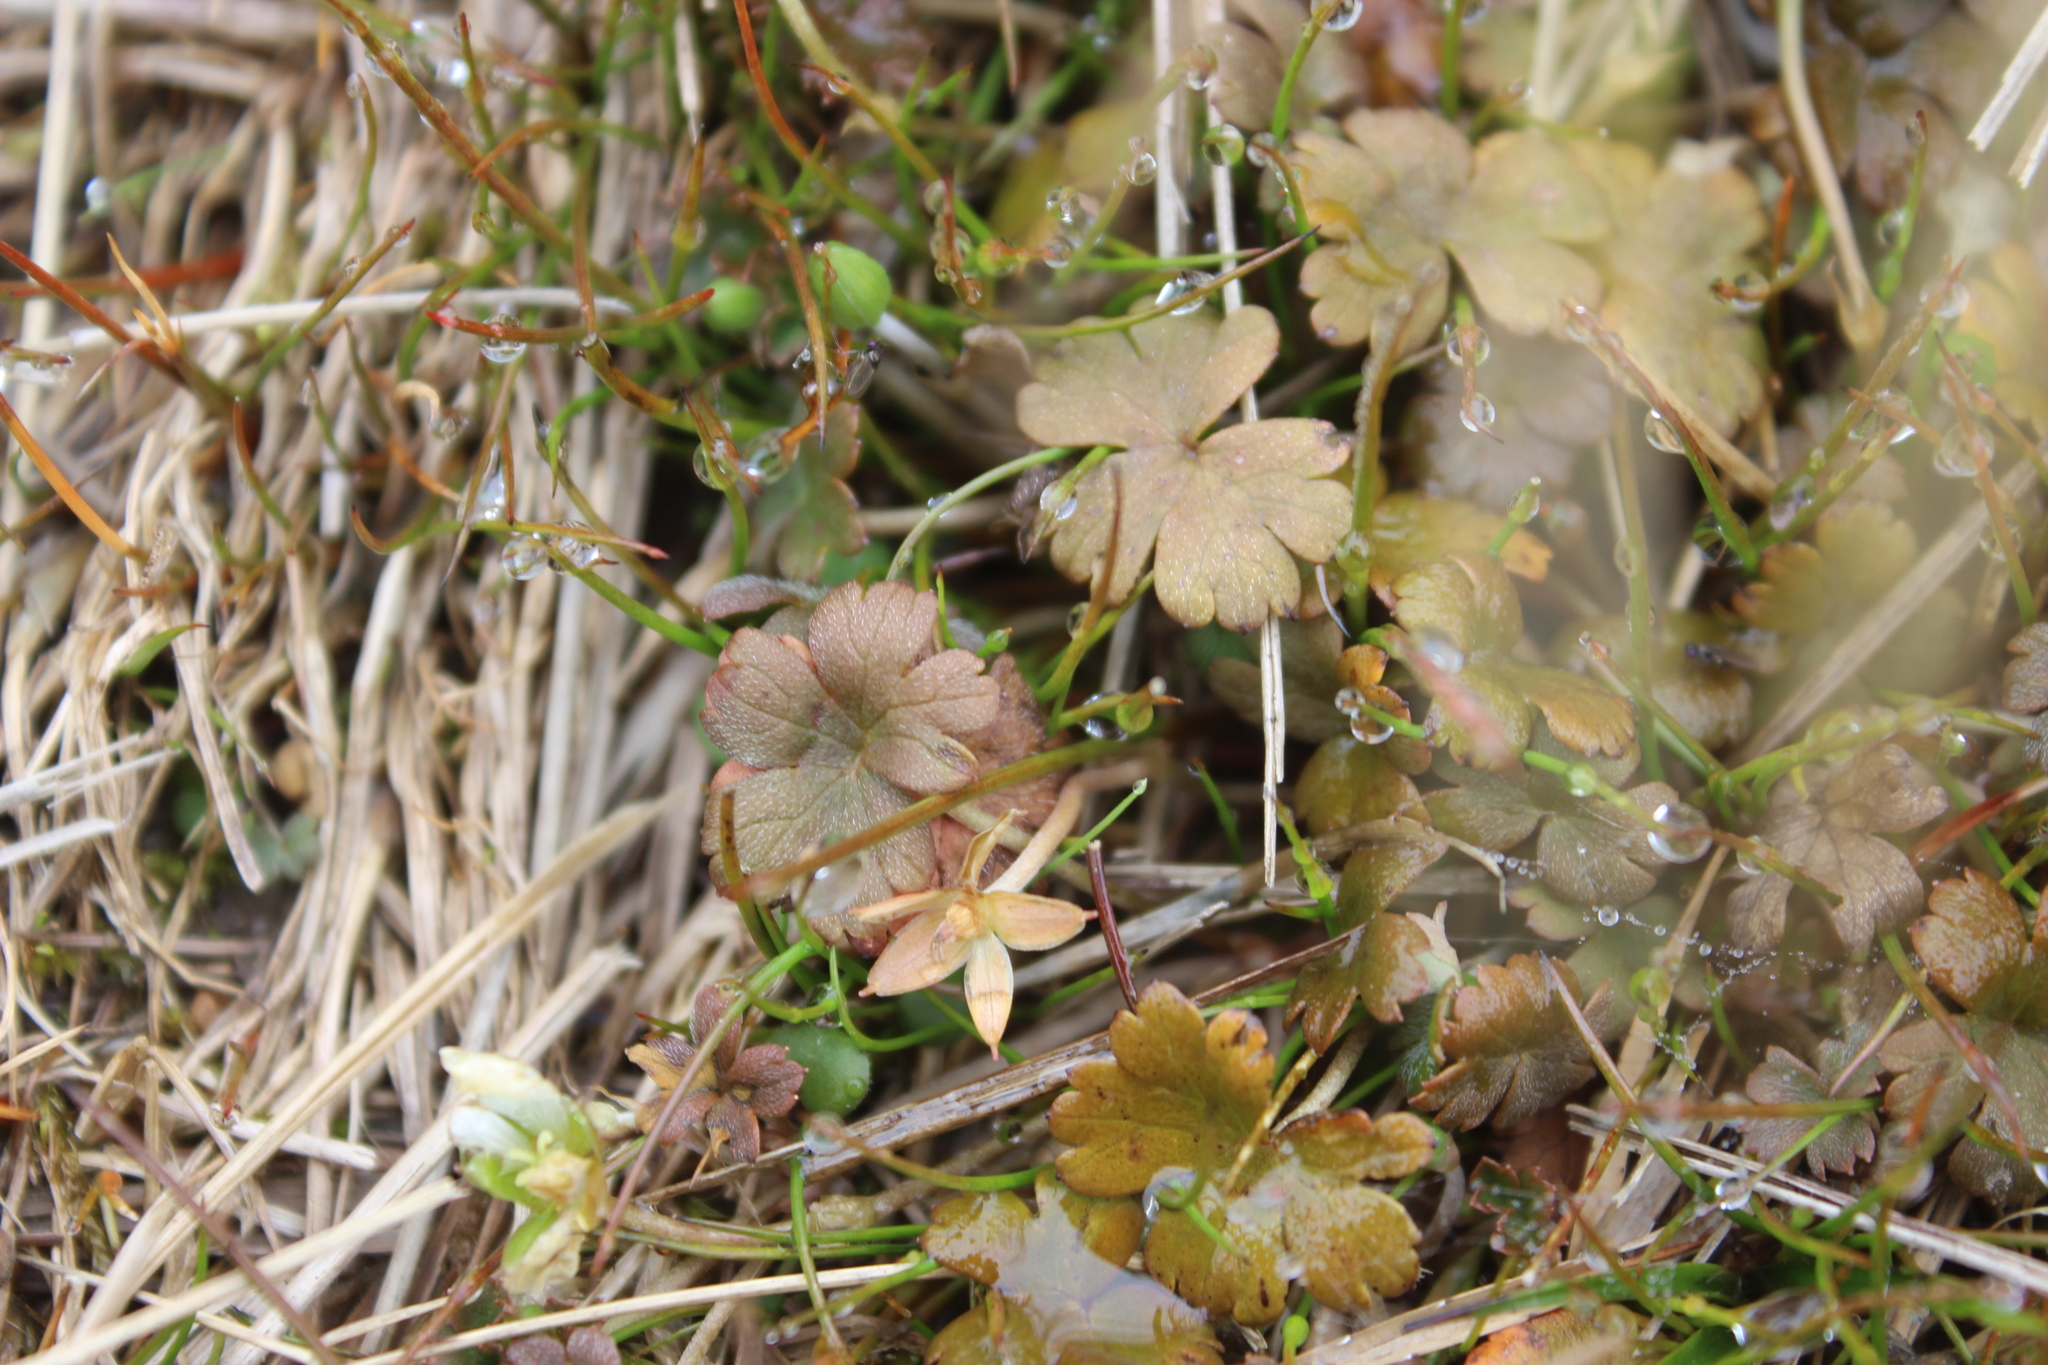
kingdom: Plantae
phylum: Tracheophyta
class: Magnoliopsida
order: Geraniales
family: Geraniaceae
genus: Geranium
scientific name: Geranium brevicaule
